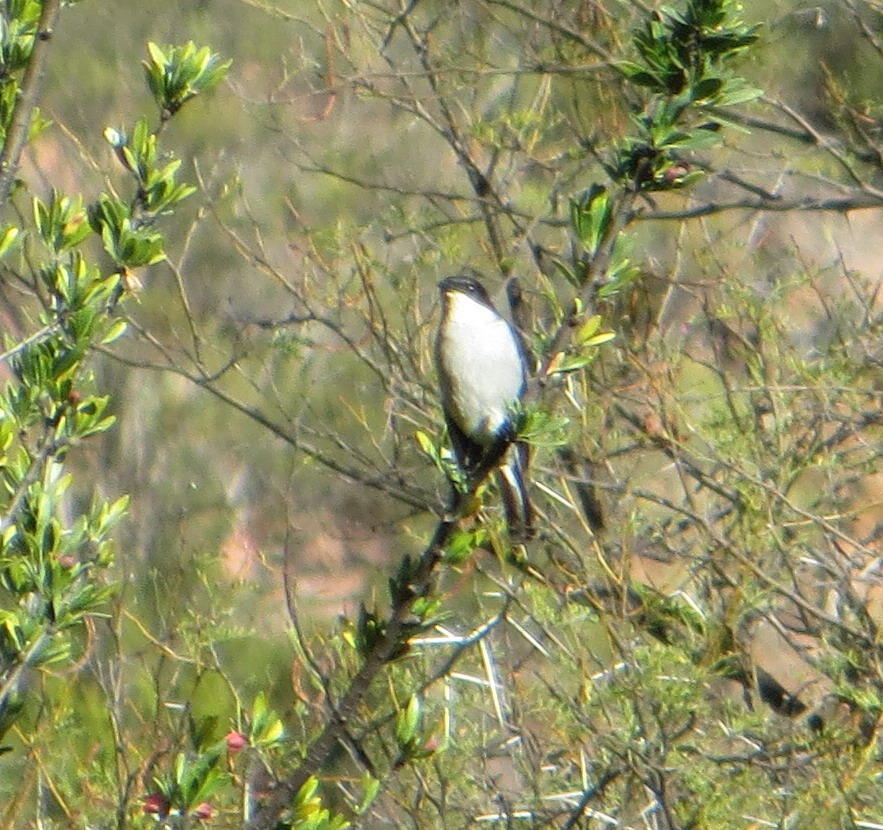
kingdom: Animalia
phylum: Chordata
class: Aves
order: Passeriformes
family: Muscicapidae
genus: Sigelus
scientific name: Sigelus silens
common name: Fiscal flycatcher
